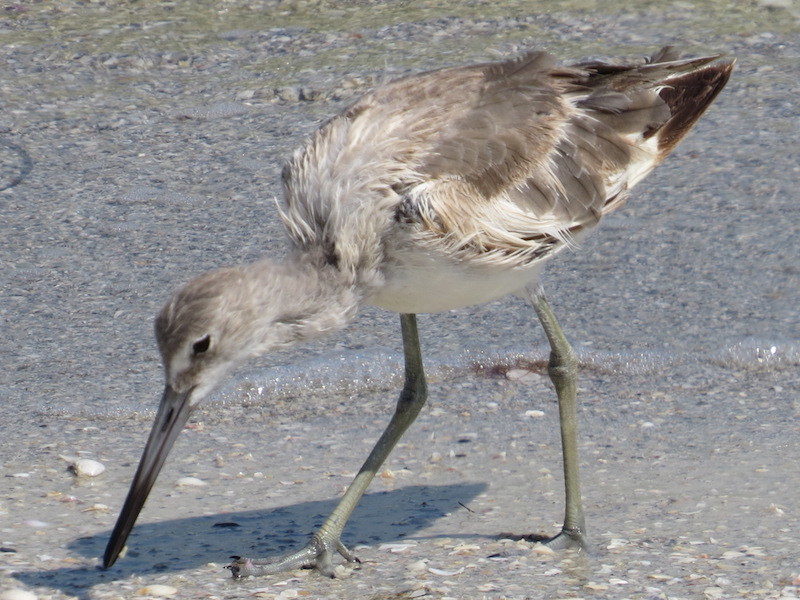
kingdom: Animalia
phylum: Chordata
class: Aves
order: Charadriiformes
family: Scolopacidae
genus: Tringa
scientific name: Tringa semipalmata
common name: Willet
